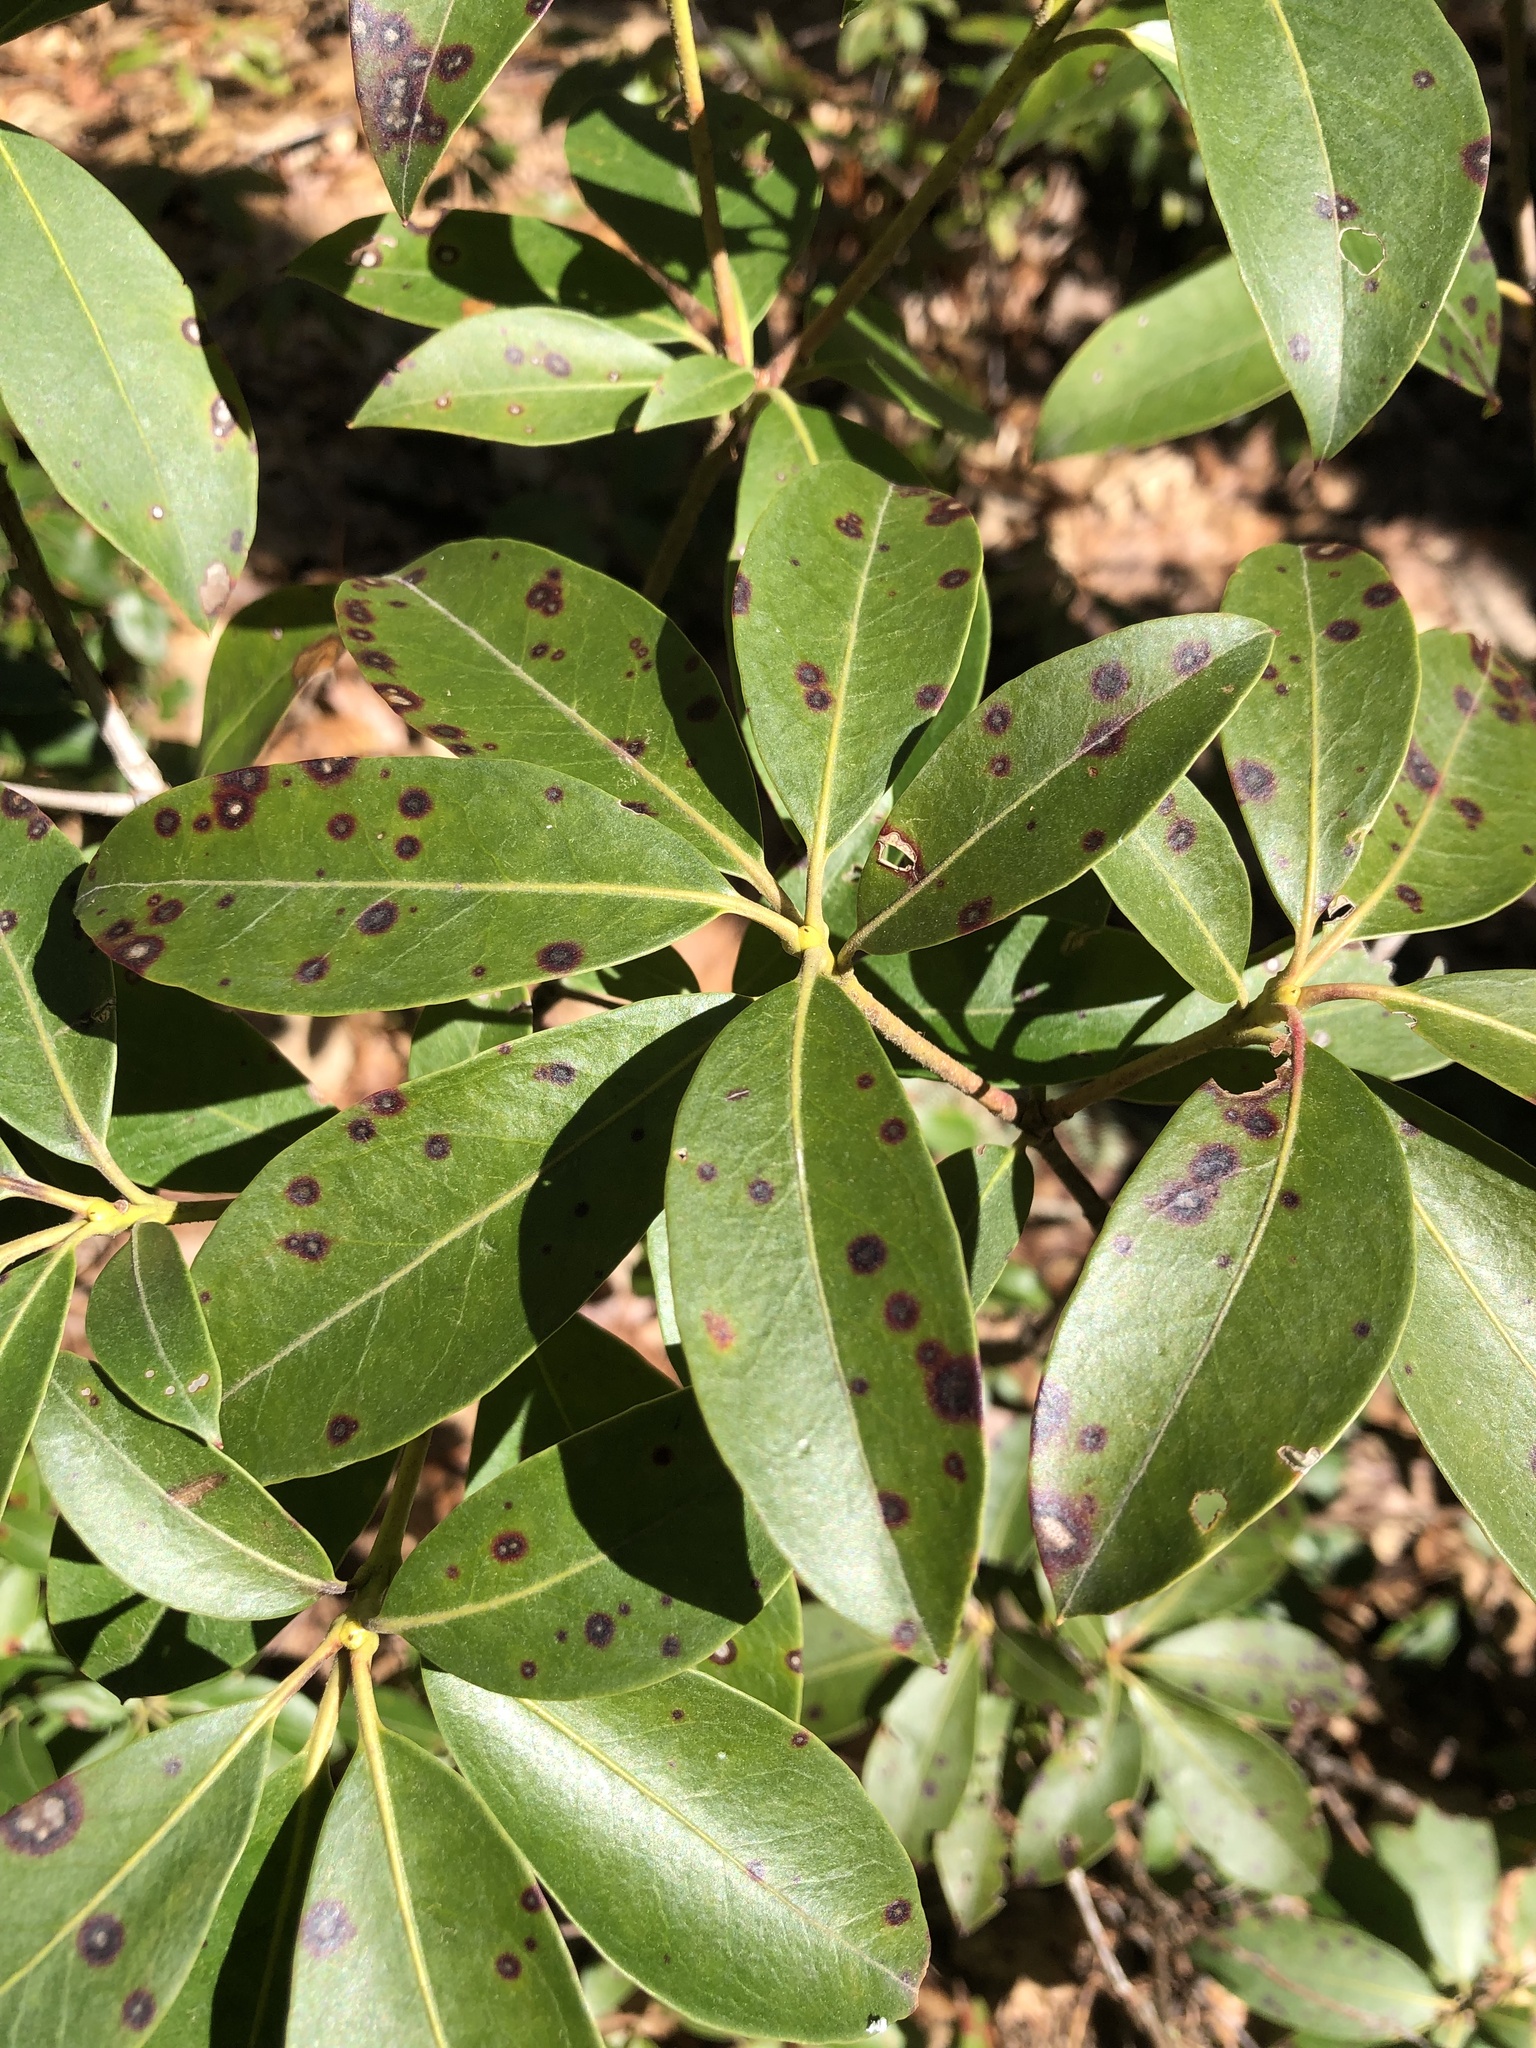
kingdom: Plantae
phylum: Tracheophyta
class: Magnoliopsida
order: Ericales
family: Ericaceae
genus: Kalmia
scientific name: Kalmia latifolia
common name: Mountain-laurel
